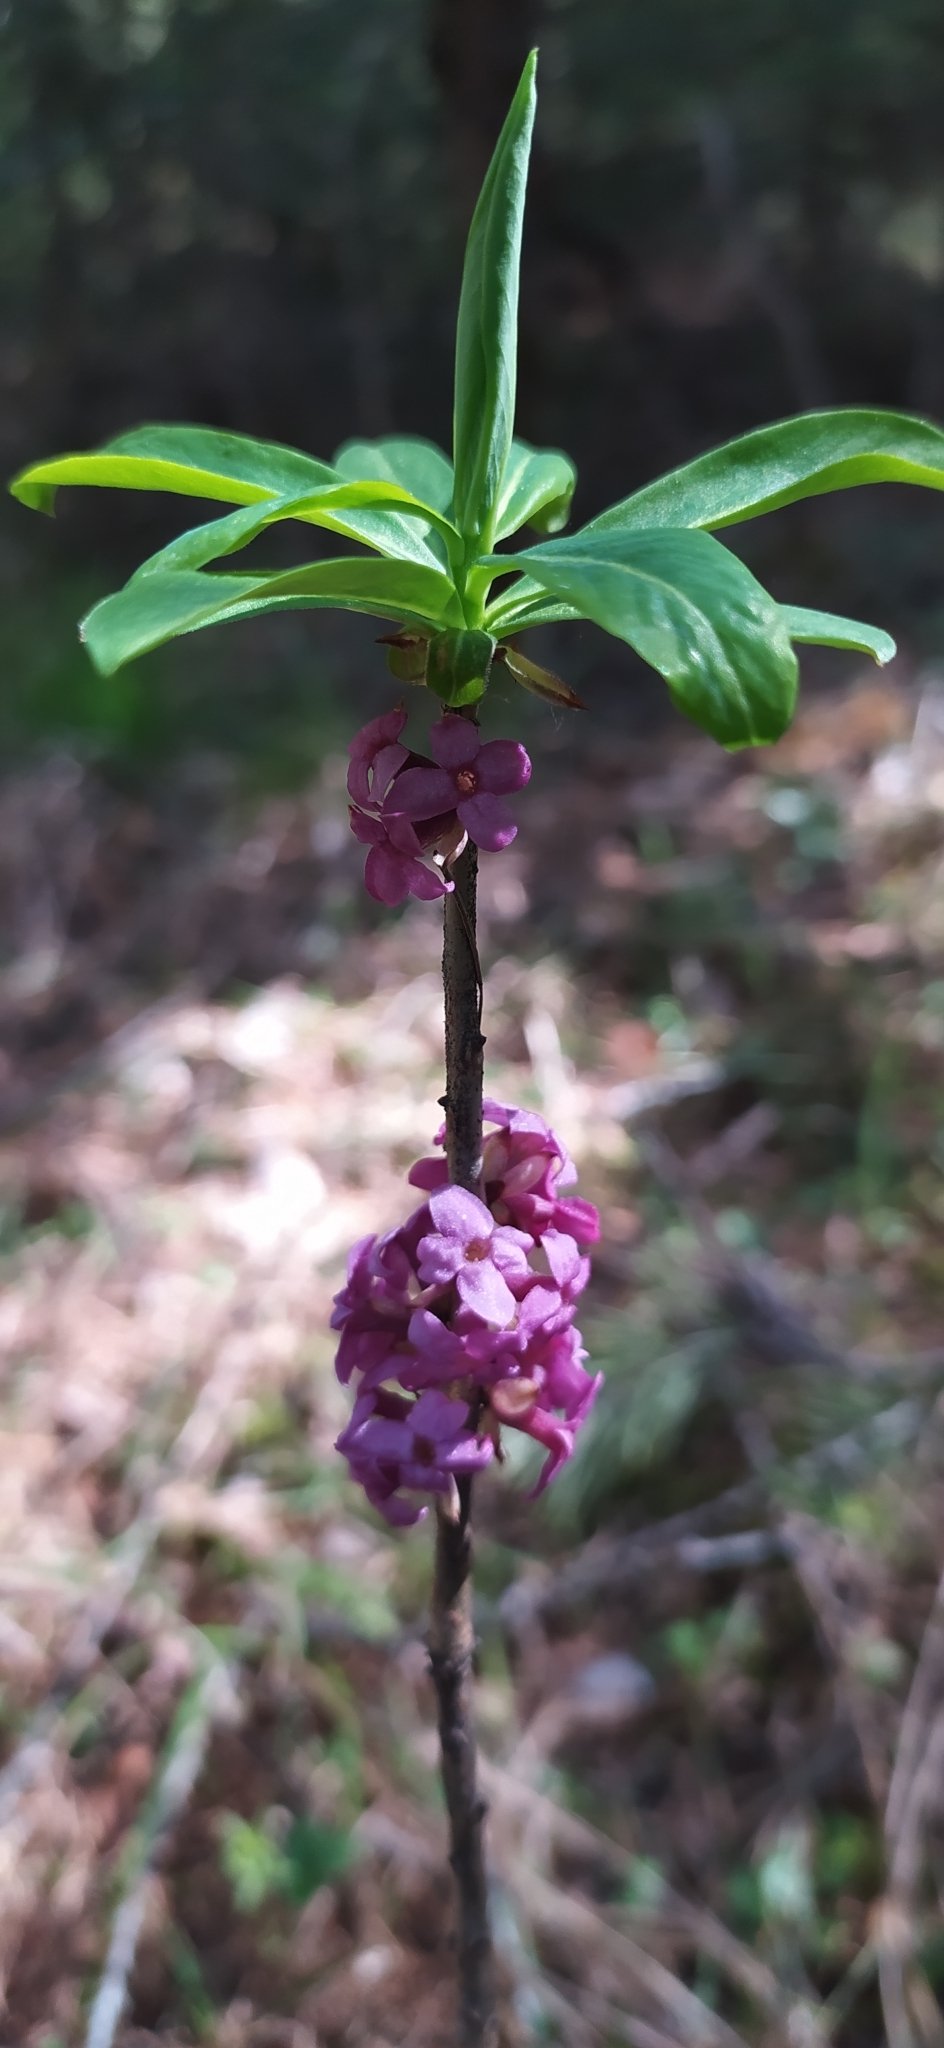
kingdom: Plantae
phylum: Tracheophyta
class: Magnoliopsida
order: Malvales
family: Thymelaeaceae
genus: Daphne
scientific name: Daphne mezereum
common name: Mezereon
